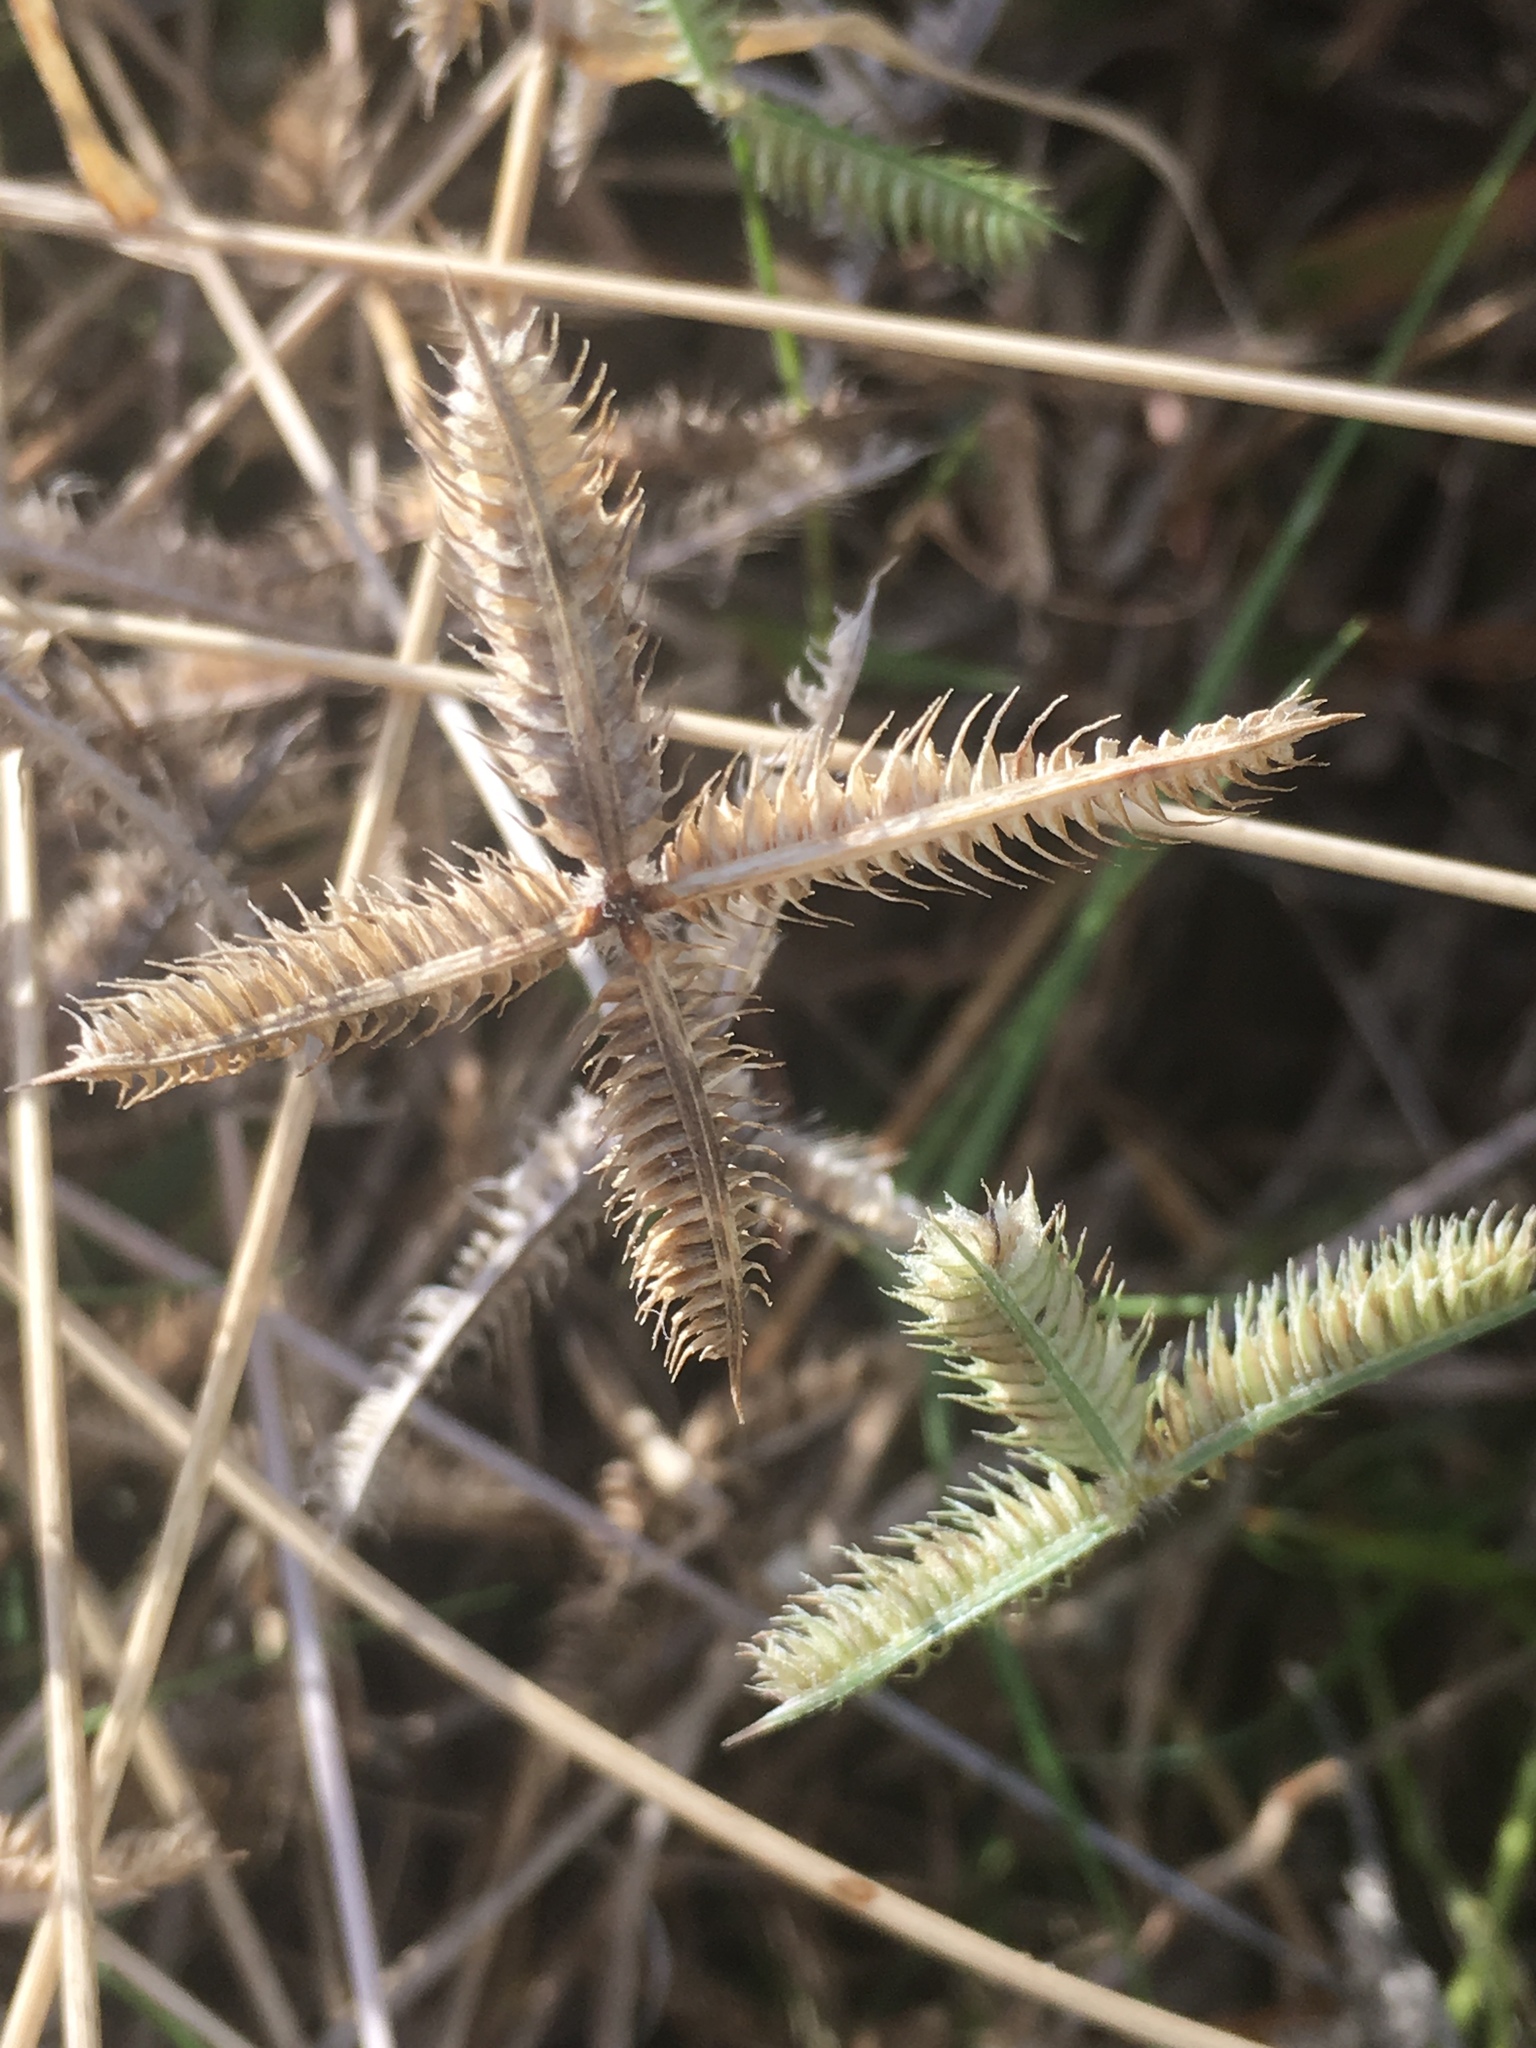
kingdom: Plantae
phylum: Tracheophyta
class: Liliopsida
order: Poales
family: Poaceae
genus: Dactyloctenium
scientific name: Dactyloctenium aegyptium
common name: Egyptian grass
